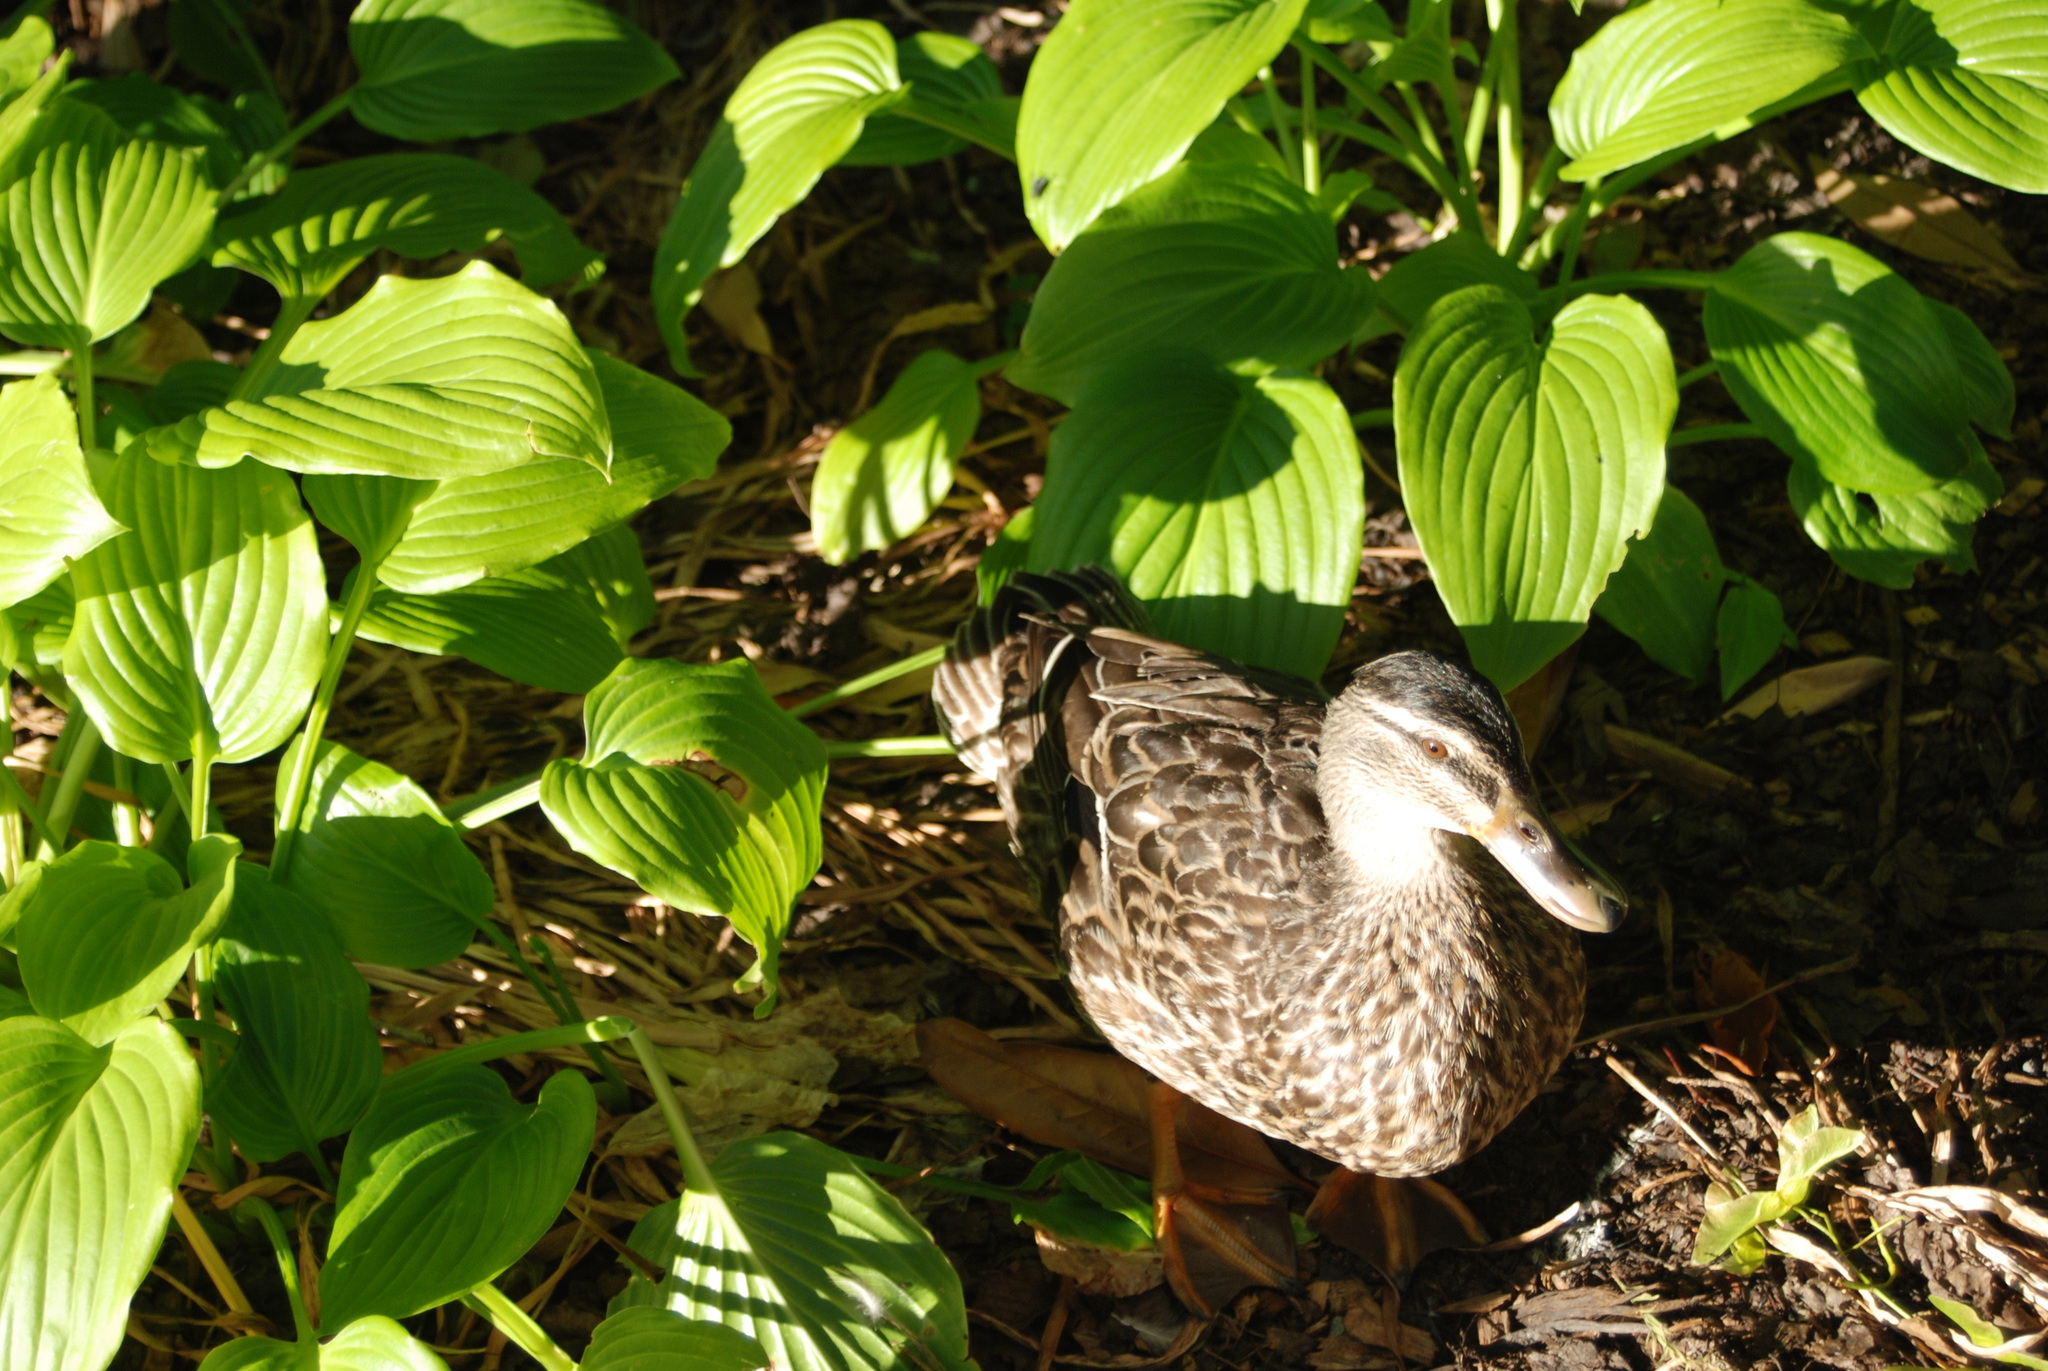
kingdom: Animalia
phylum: Chordata
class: Aves
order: Anseriformes
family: Anatidae
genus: Anas
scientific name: Anas
